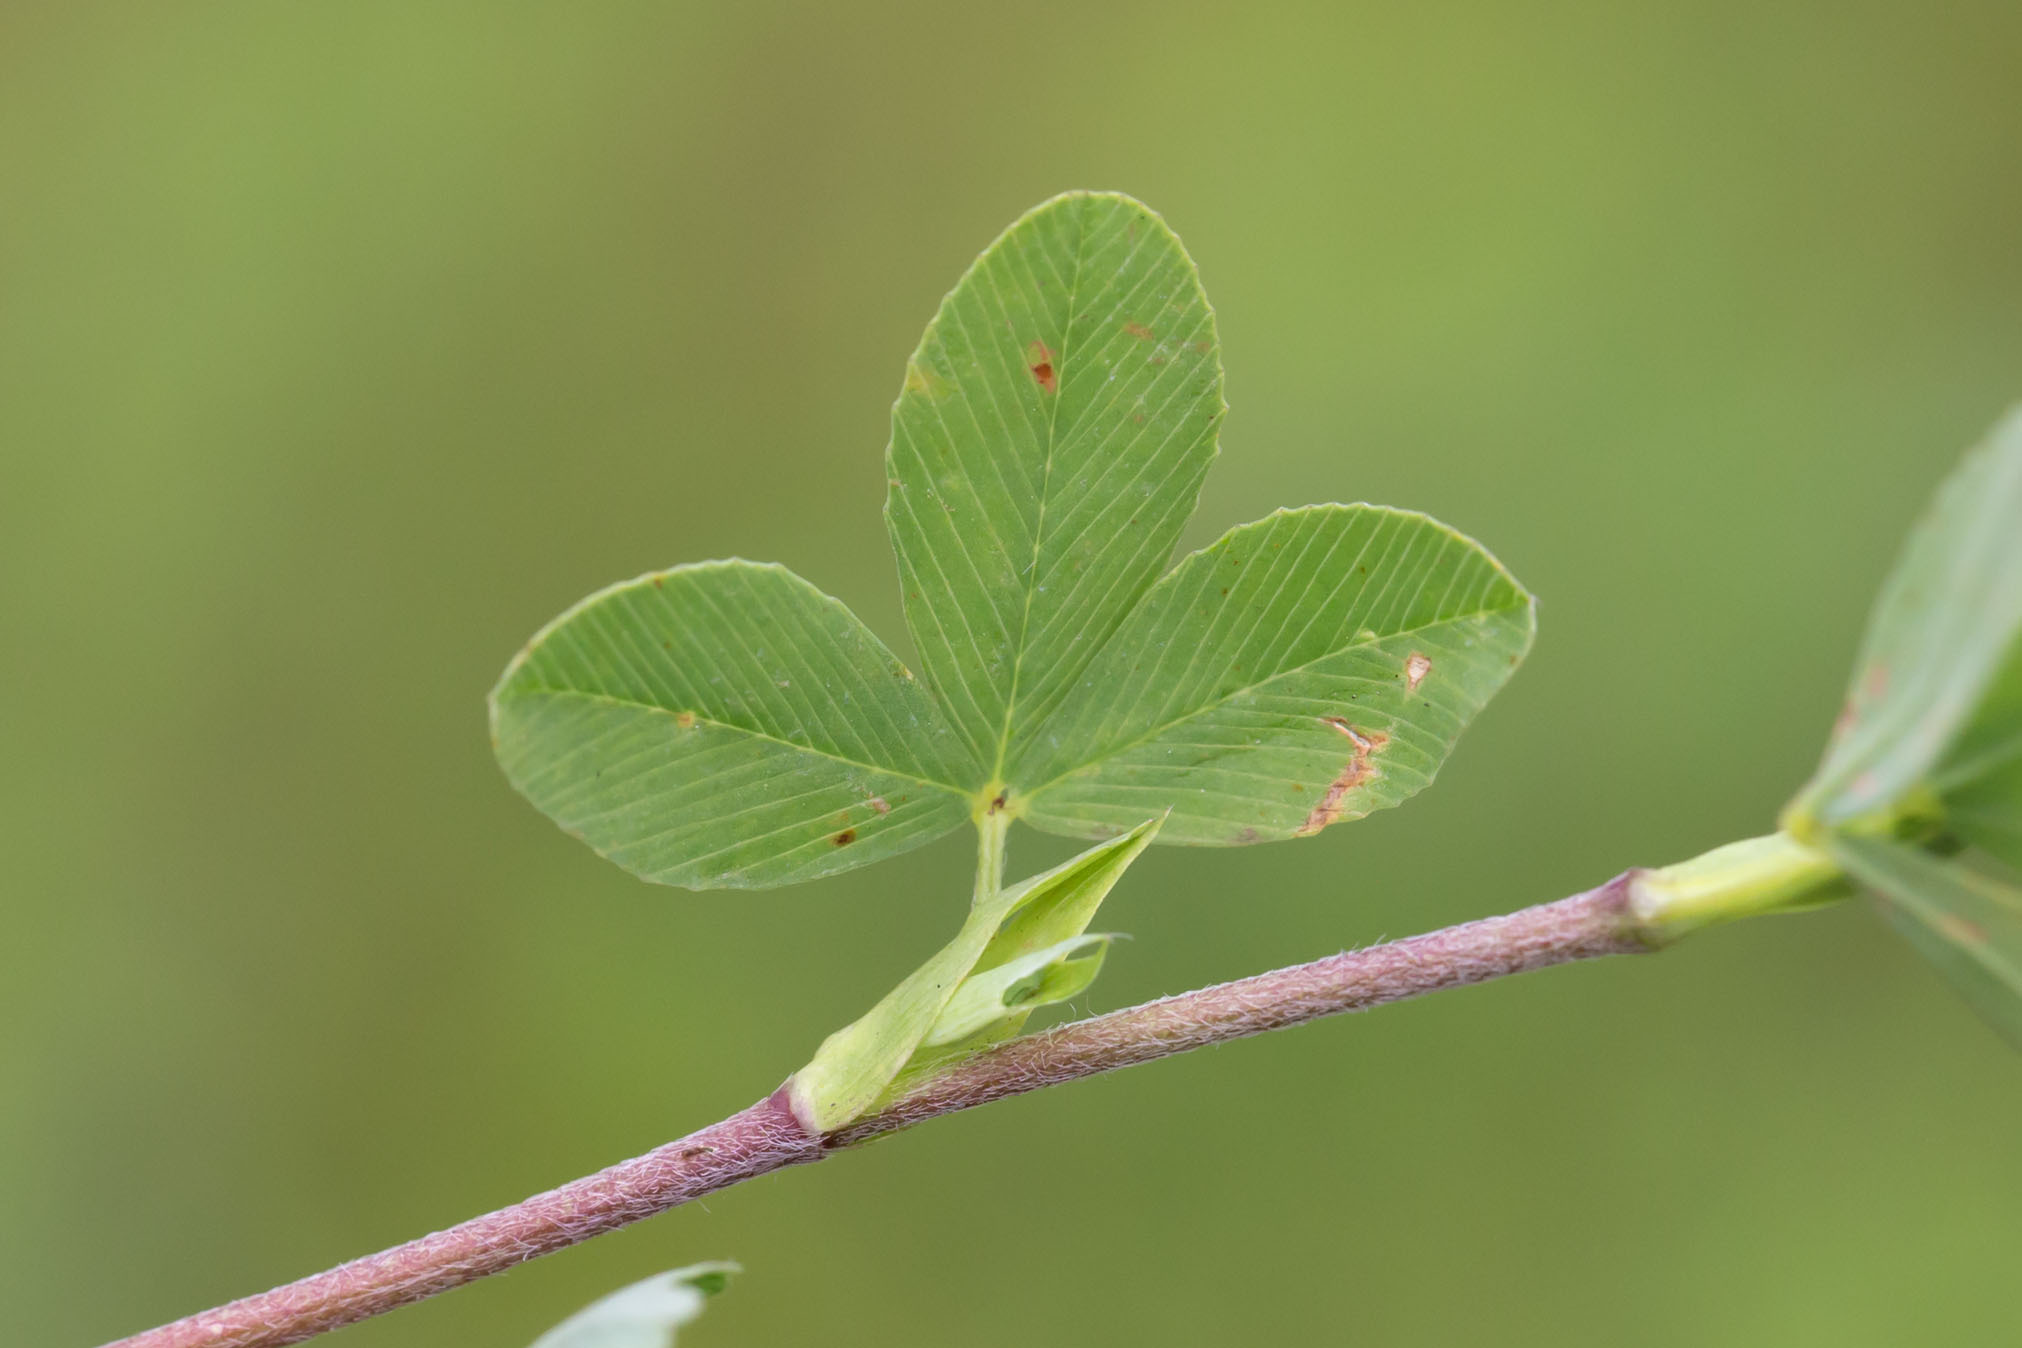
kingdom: Plantae
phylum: Tracheophyta
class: Magnoliopsida
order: Fabales
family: Fabaceae
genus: Trifolium
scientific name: Trifolium aureum
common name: Golden clover
